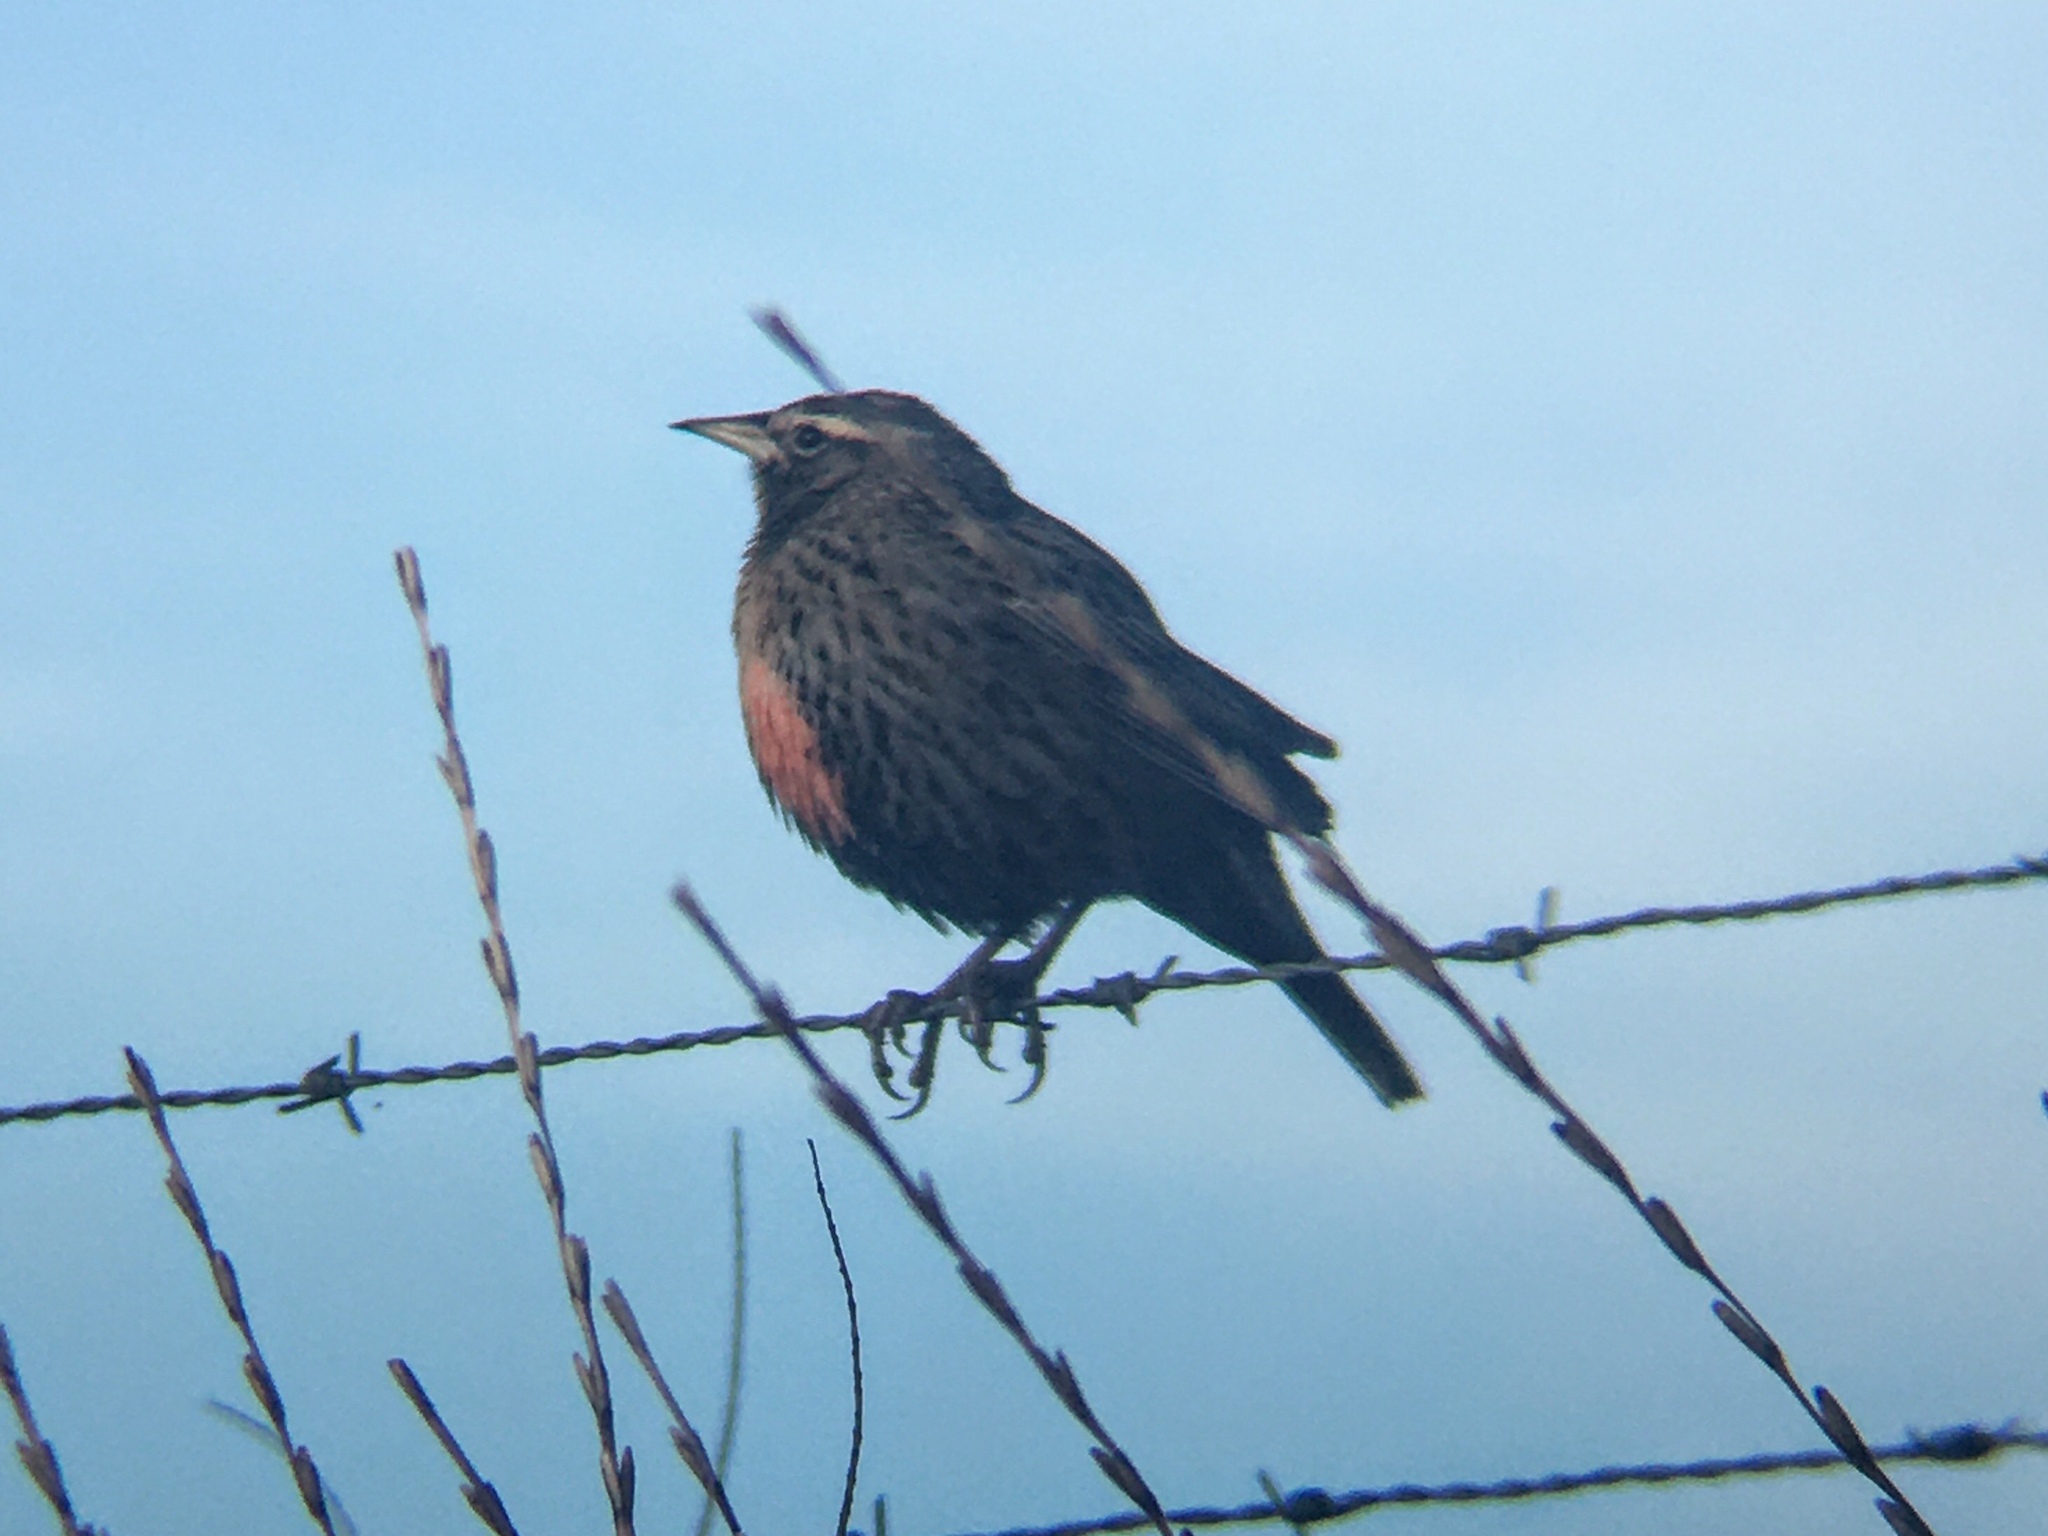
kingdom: Animalia
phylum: Chordata
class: Aves
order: Passeriformes
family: Icteridae
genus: Sturnella
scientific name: Sturnella loyca
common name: Long-tailed meadowlark
